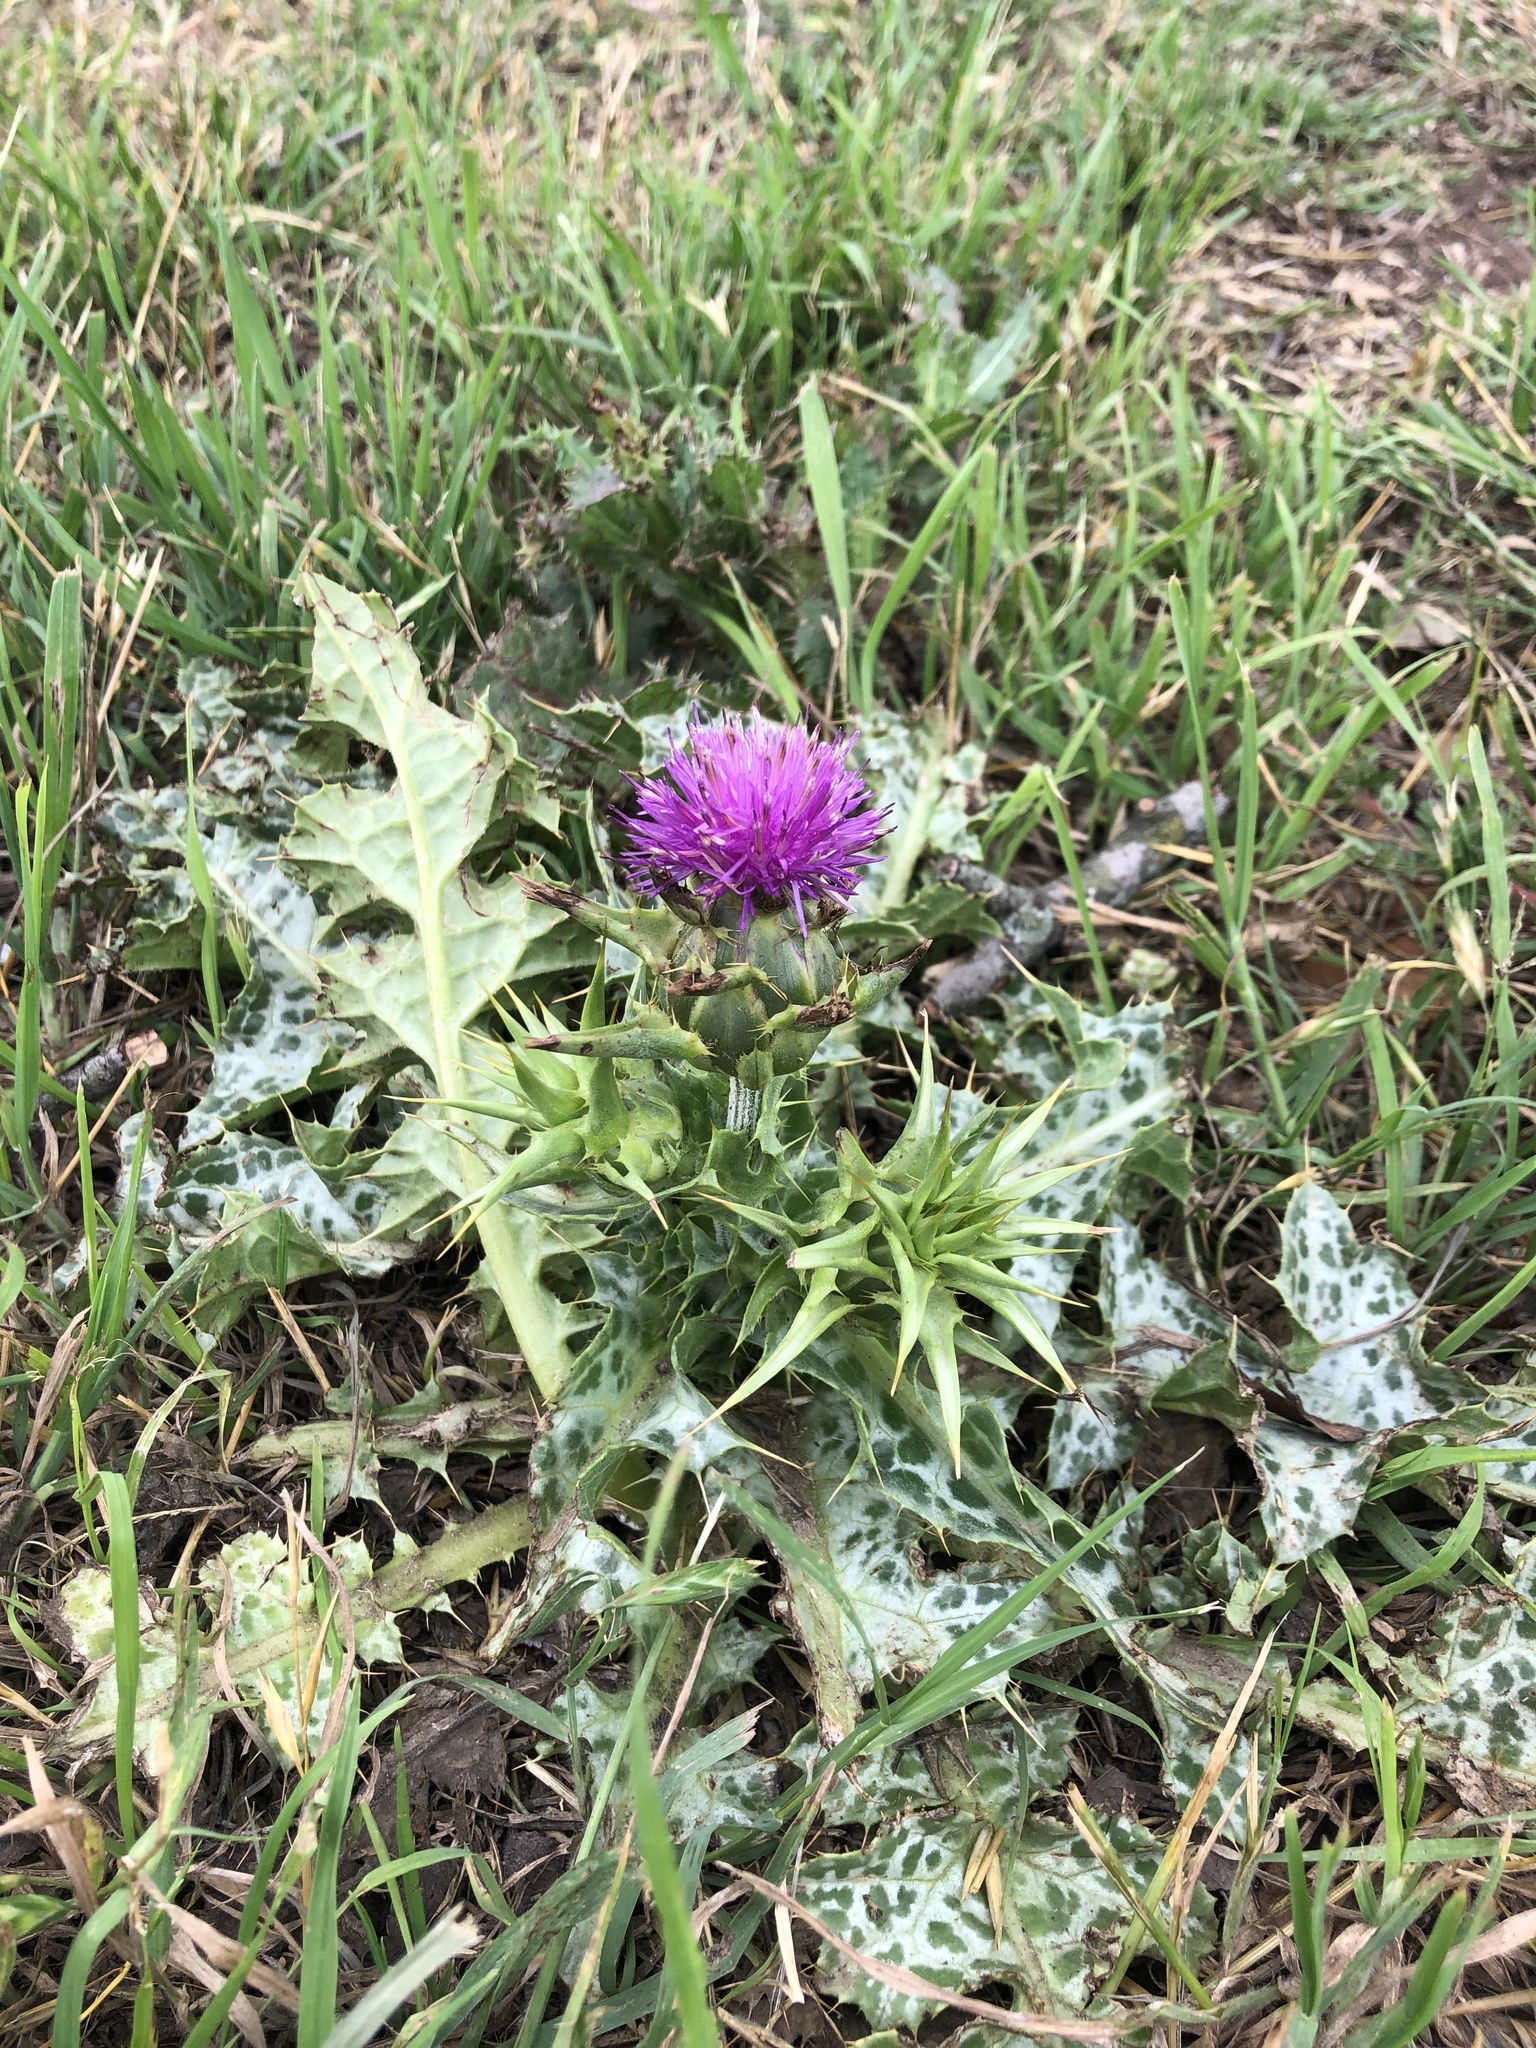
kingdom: Plantae
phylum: Tracheophyta
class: Magnoliopsida
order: Asterales
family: Asteraceae
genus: Silybum
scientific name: Silybum marianum
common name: Milk thistle
